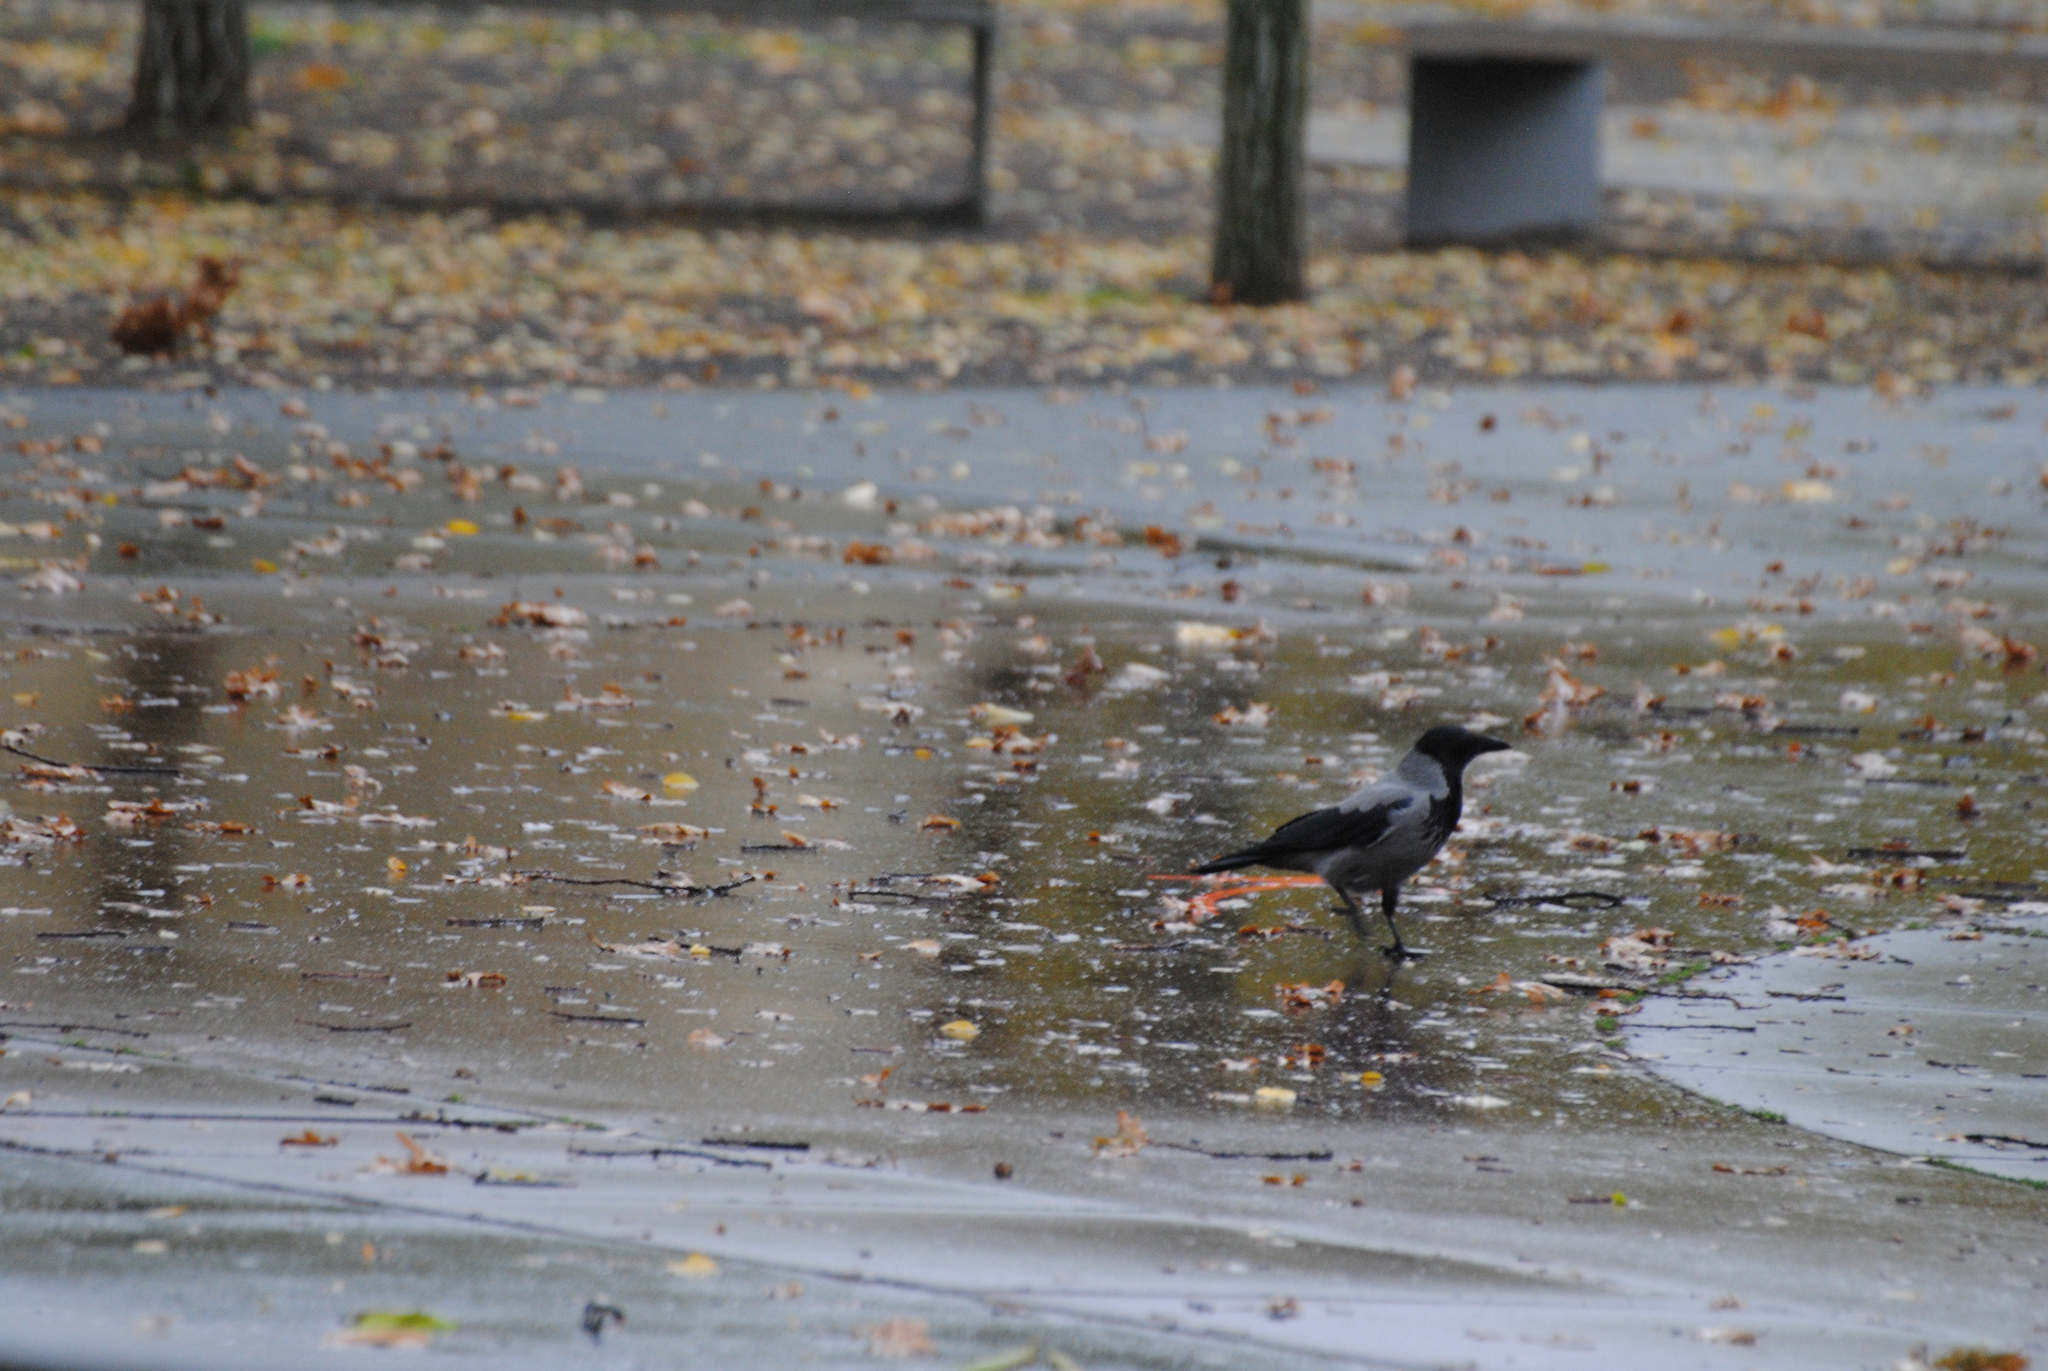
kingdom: Animalia
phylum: Chordata
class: Aves
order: Passeriformes
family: Corvidae
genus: Corvus
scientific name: Corvus cornix
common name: Hooded crow
